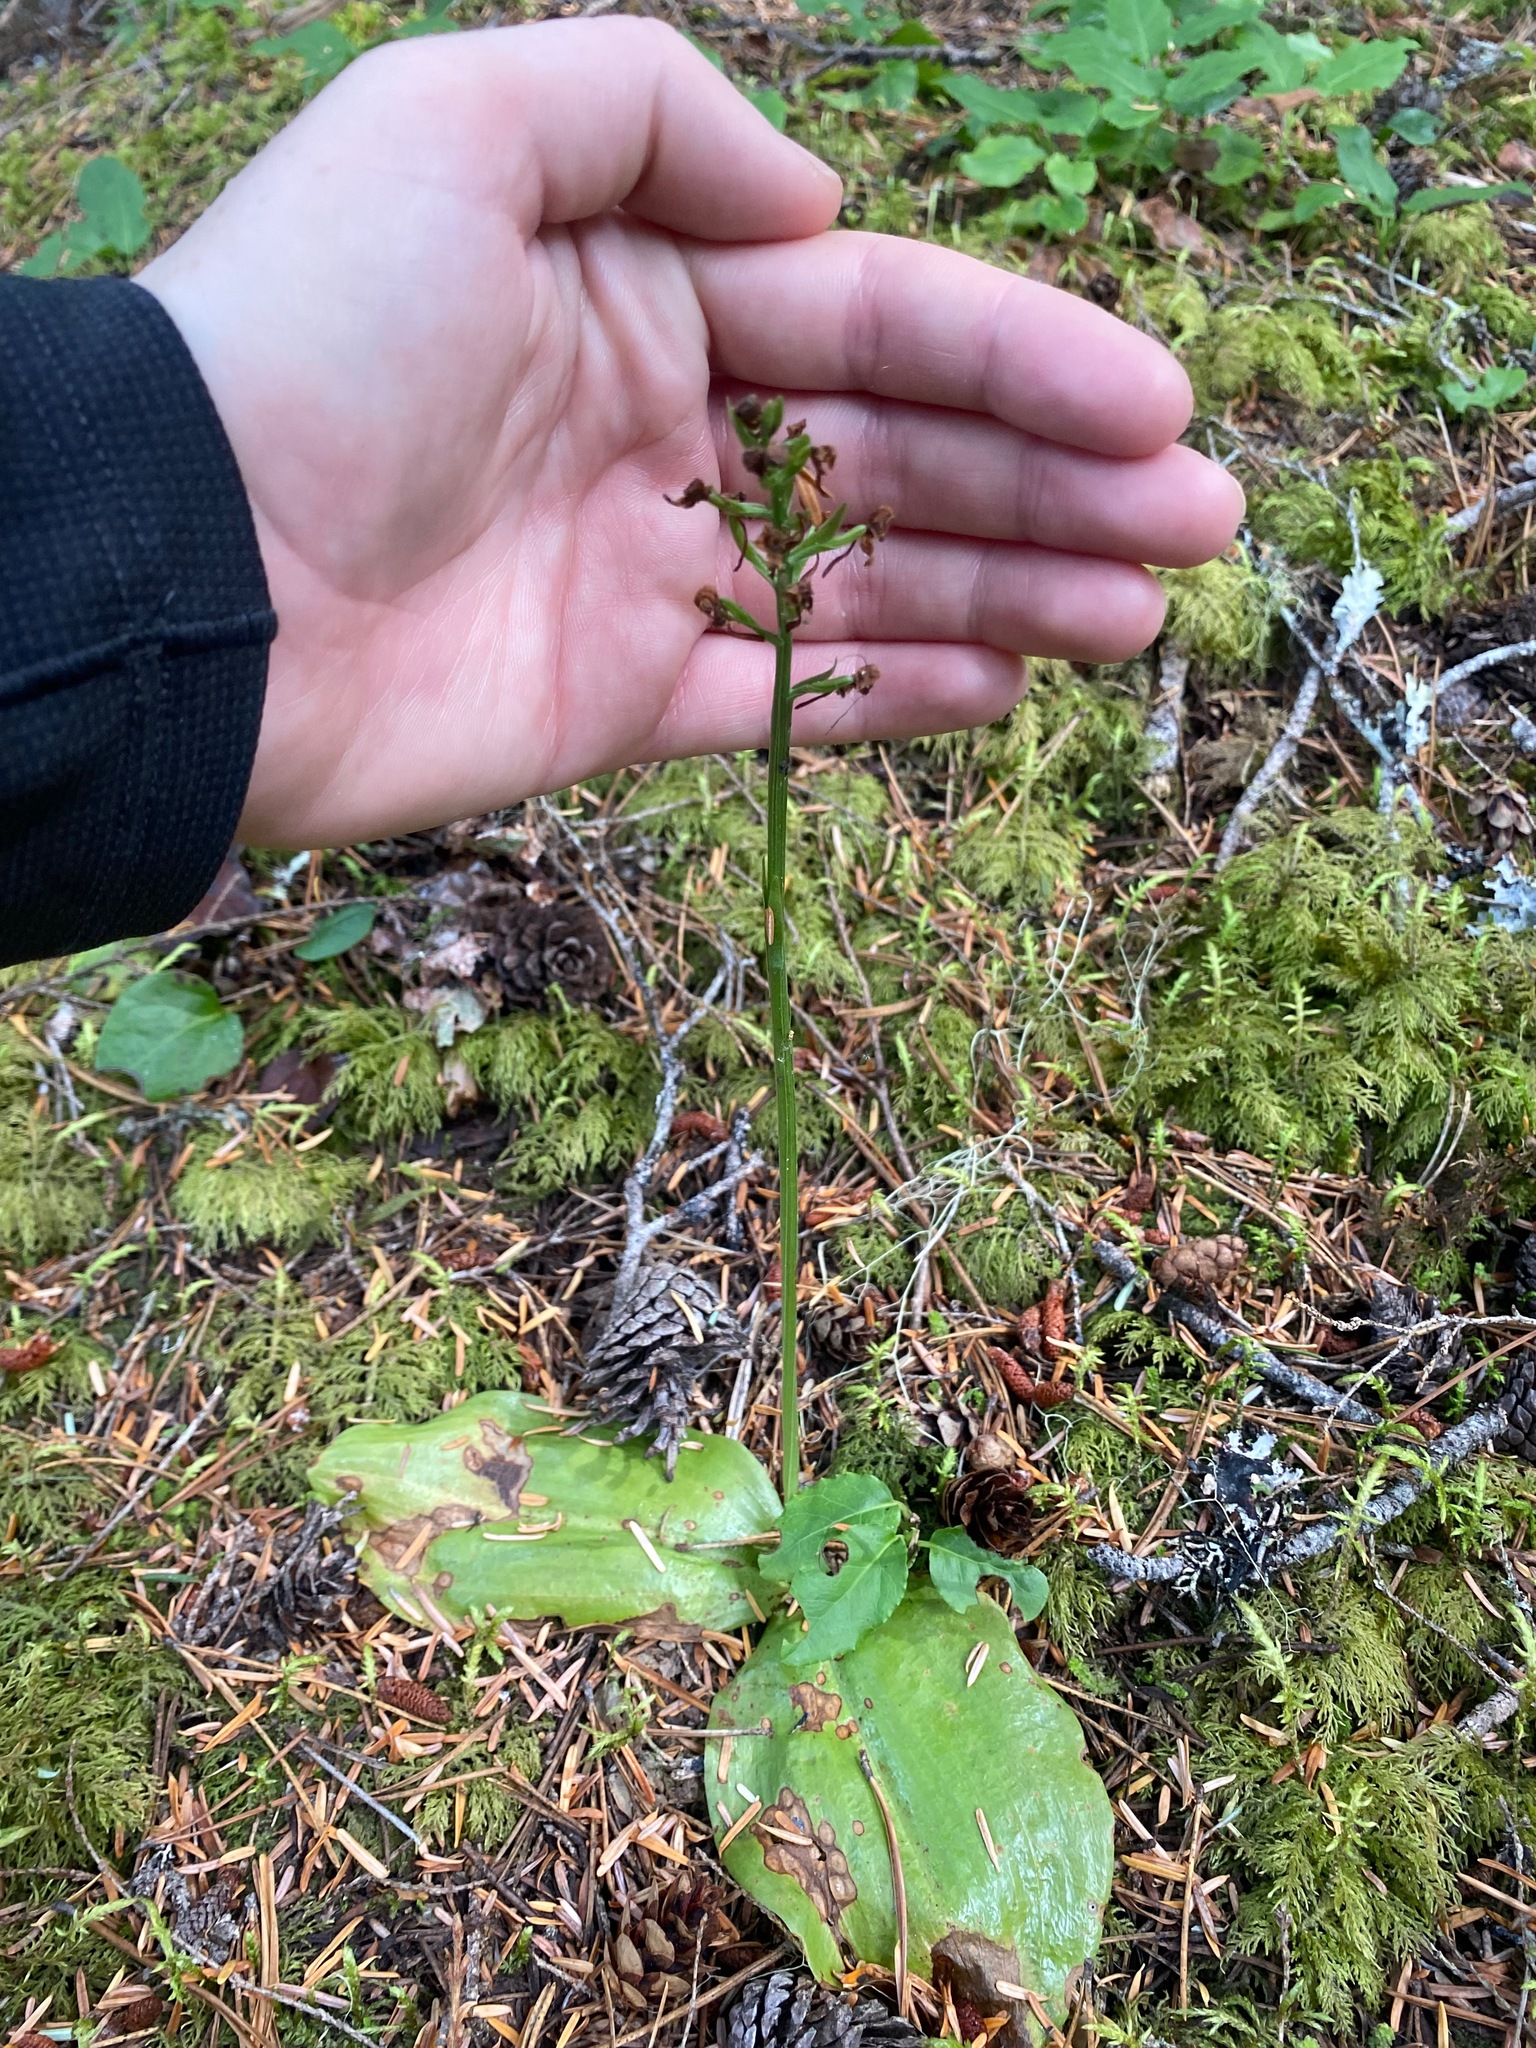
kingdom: Plantae
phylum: Tracheophyta
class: Liliopsida
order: Asparagales
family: Orchidaceae
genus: Platanthera
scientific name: Platanthera orbiculata
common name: Large round-leaved orchid
